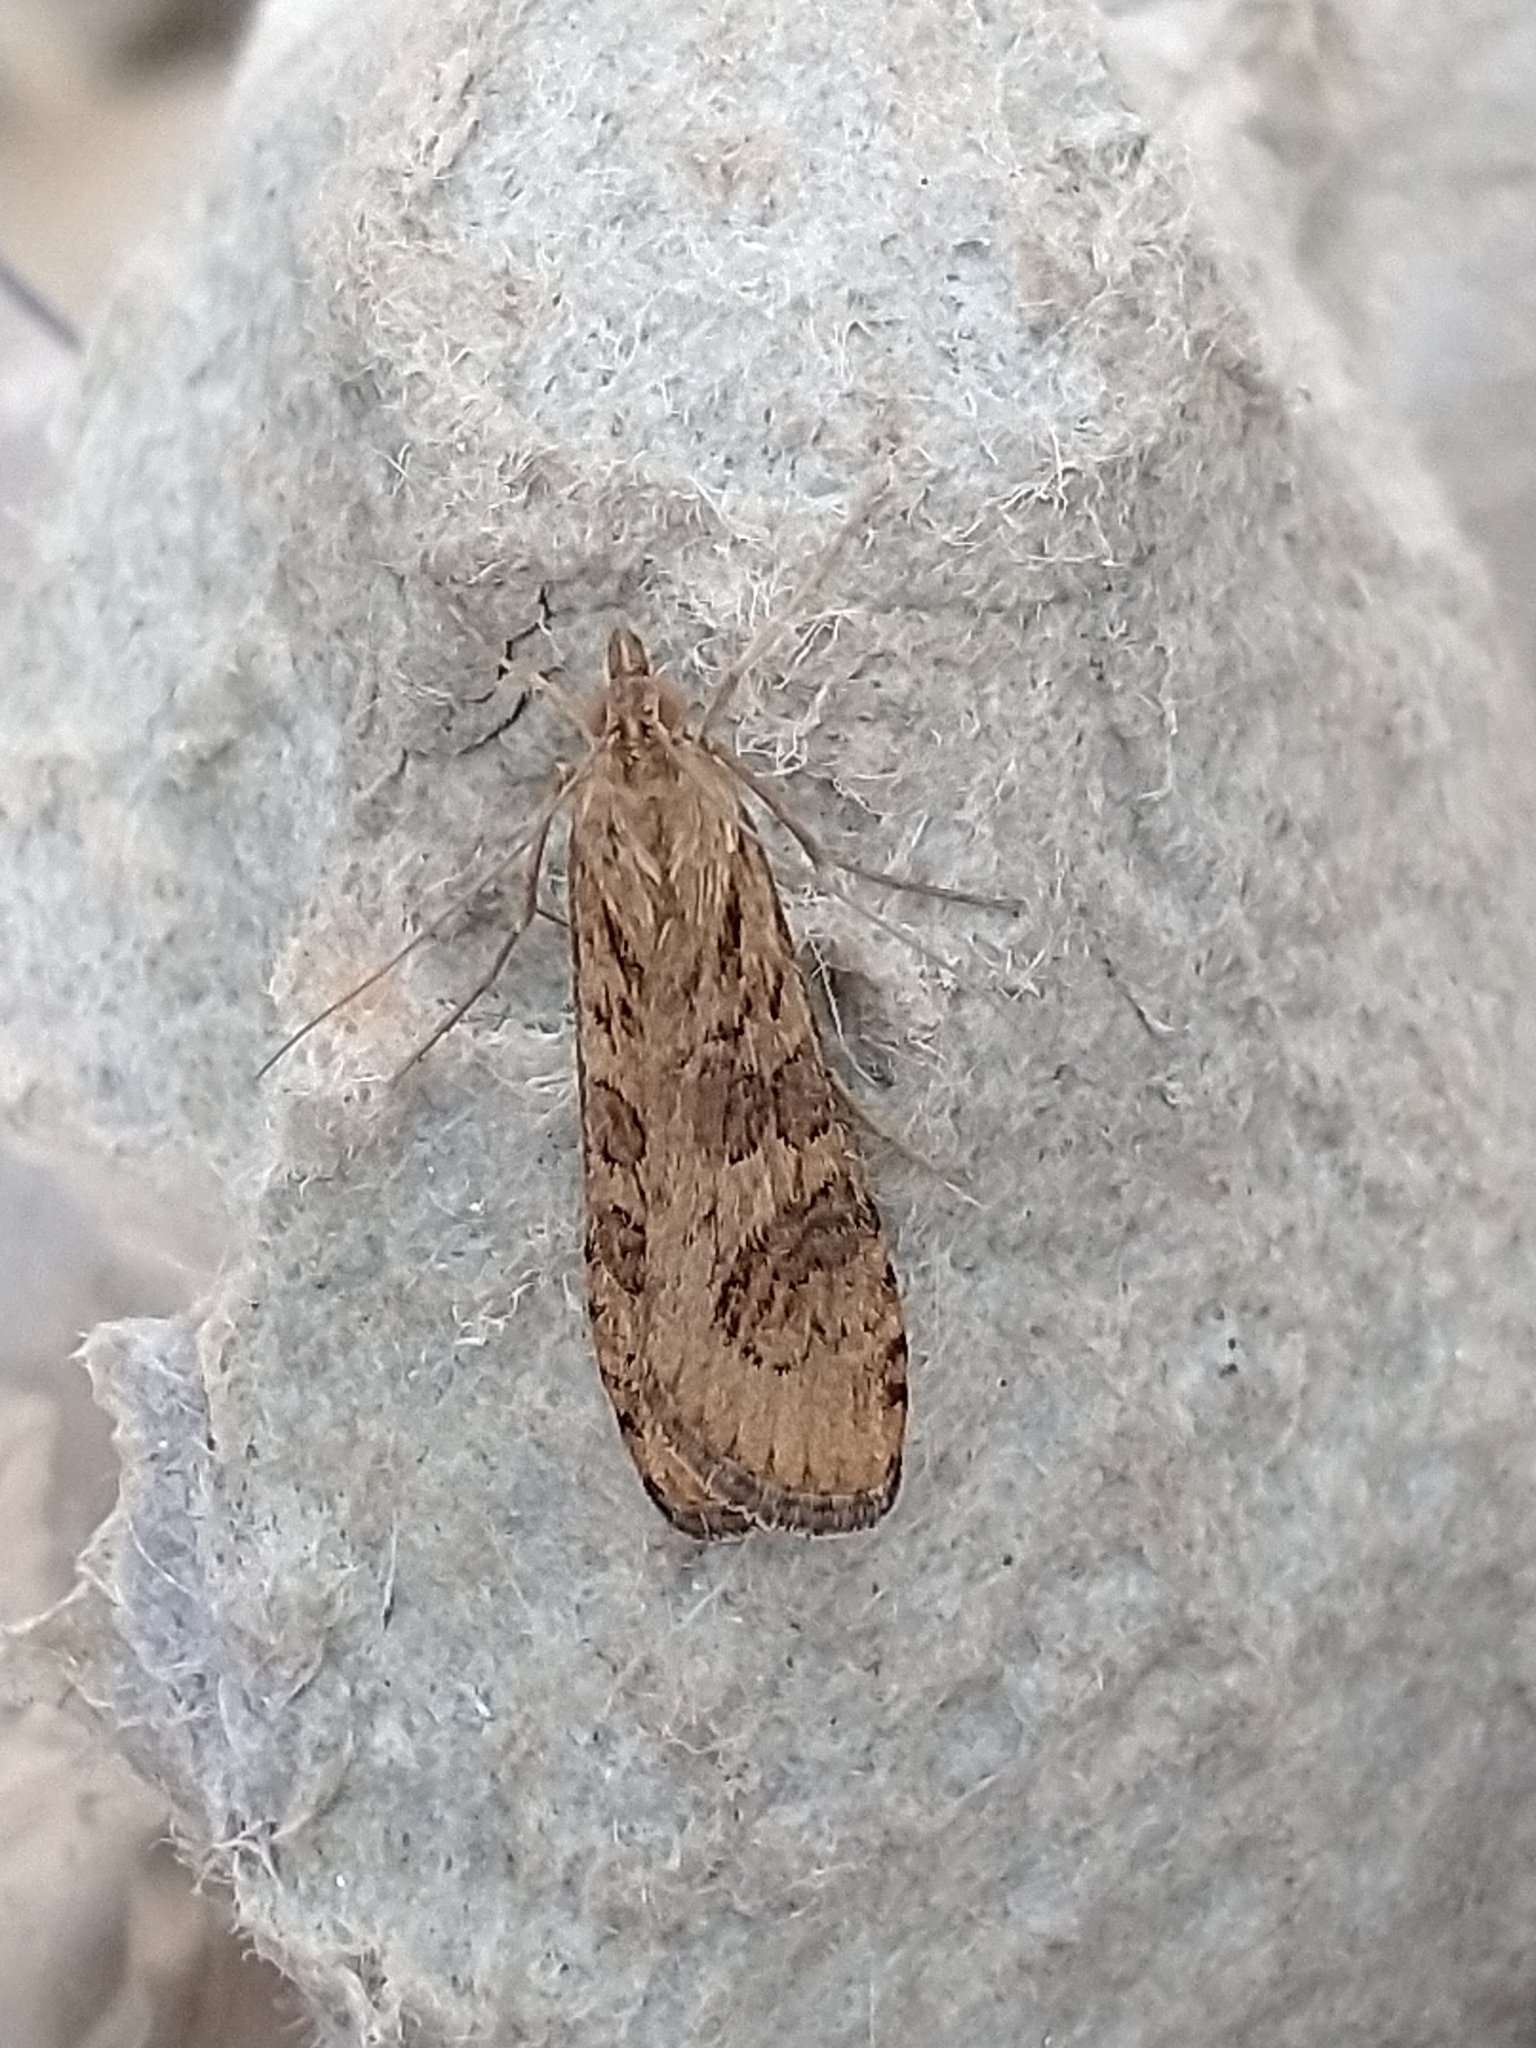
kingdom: Animalia
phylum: Arthropoda
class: Insecta
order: Lepidoptera
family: Crambidae
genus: Nomophila
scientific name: Nomophila noctuella
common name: Rush veneer
